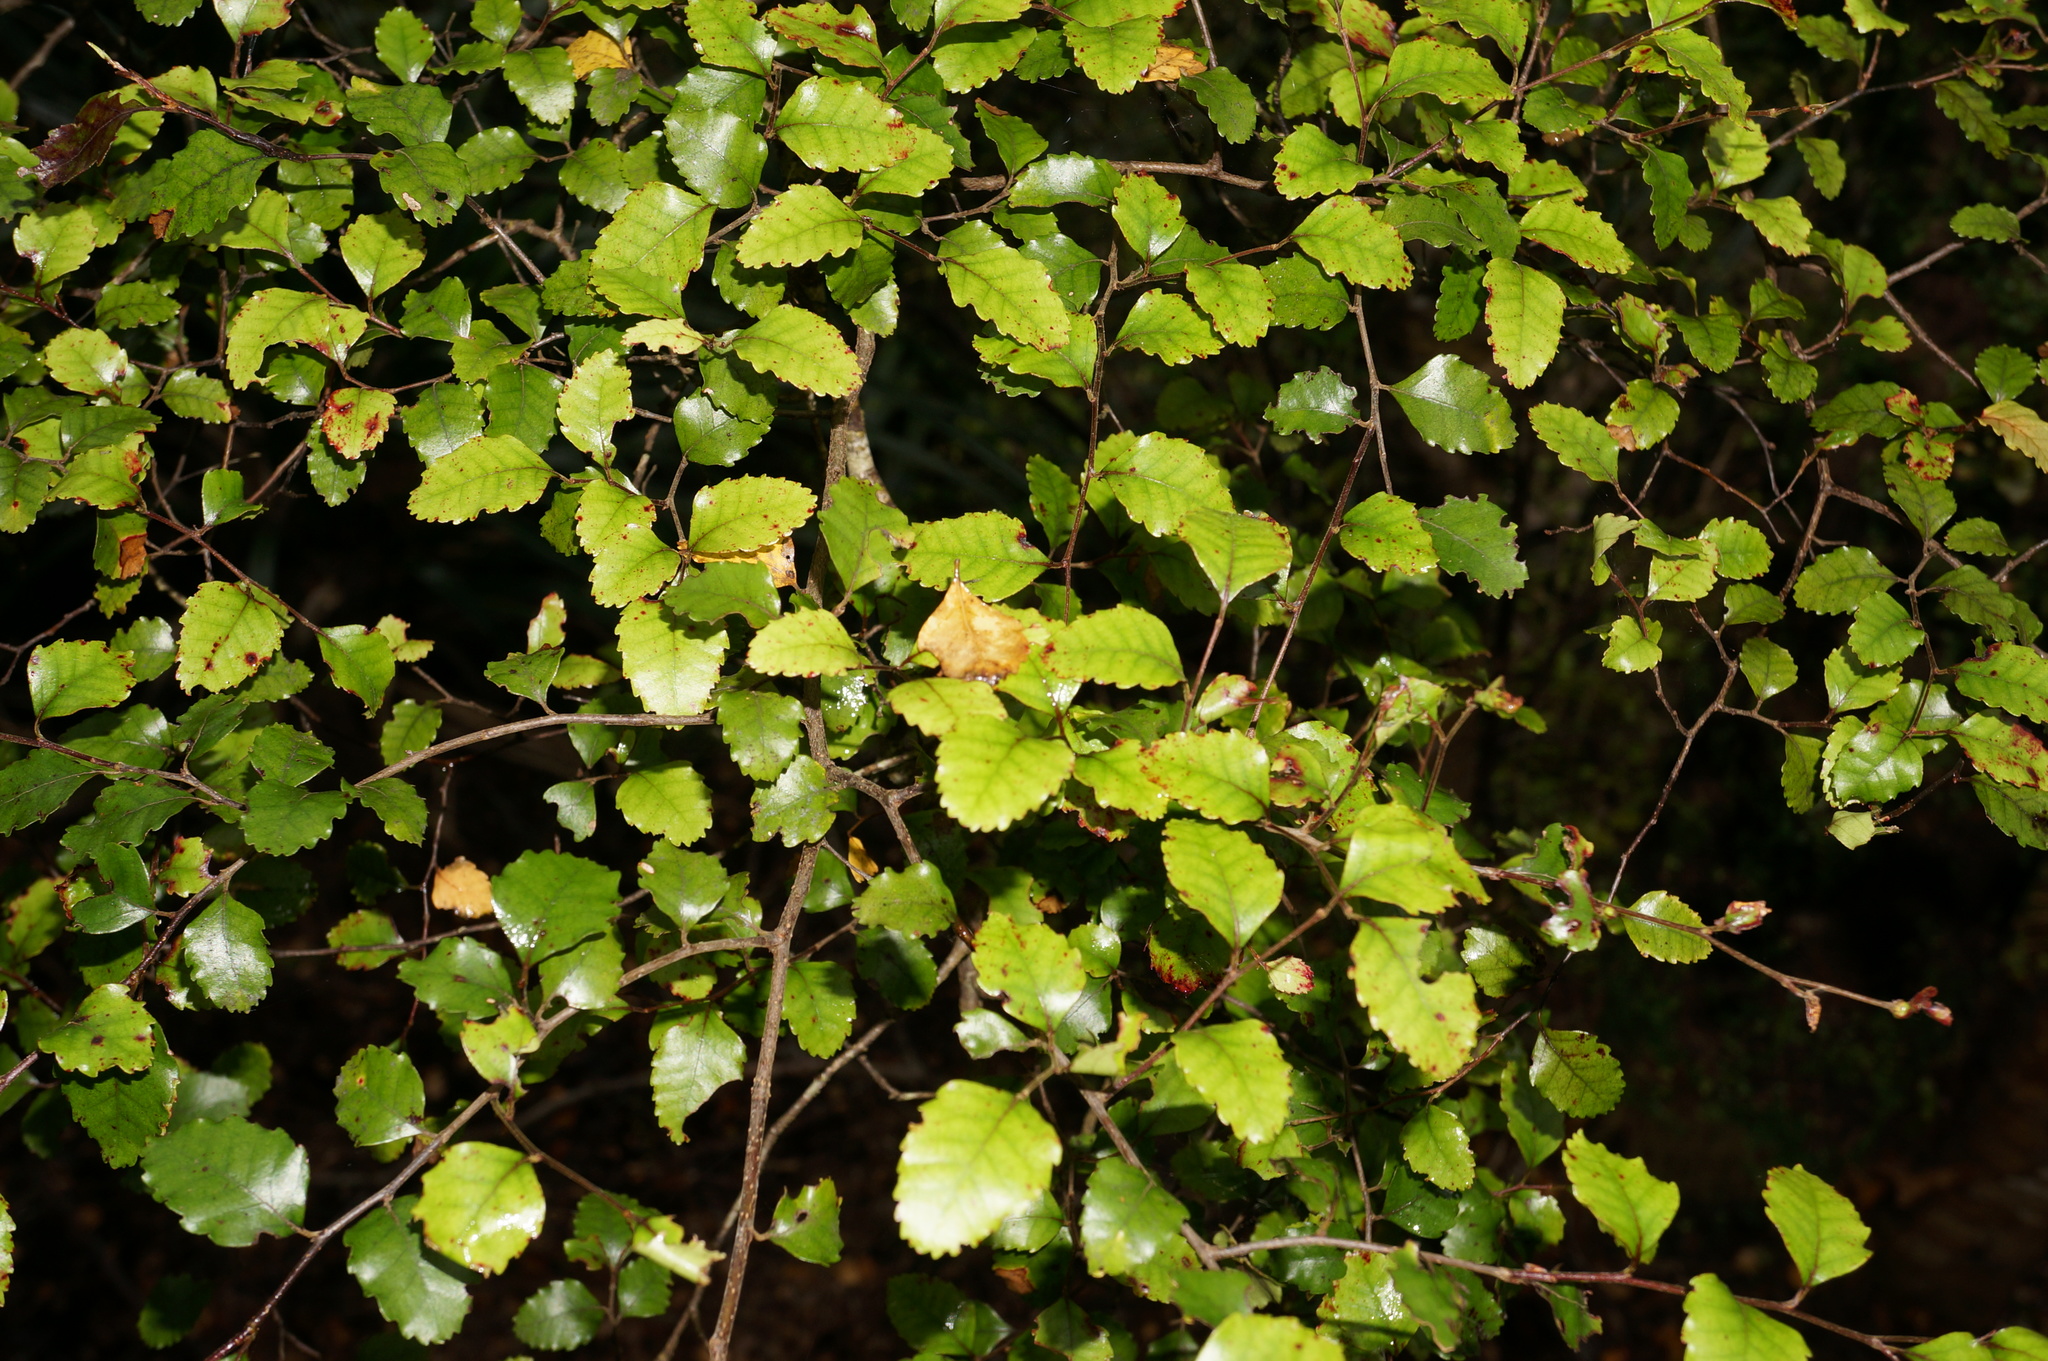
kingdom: Plantae
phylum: Tracheophyta
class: Magnoliopsida
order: Fagales
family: Nothofagaceae
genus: Nothofagus
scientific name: Nothofagus truncata
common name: Hard beech
